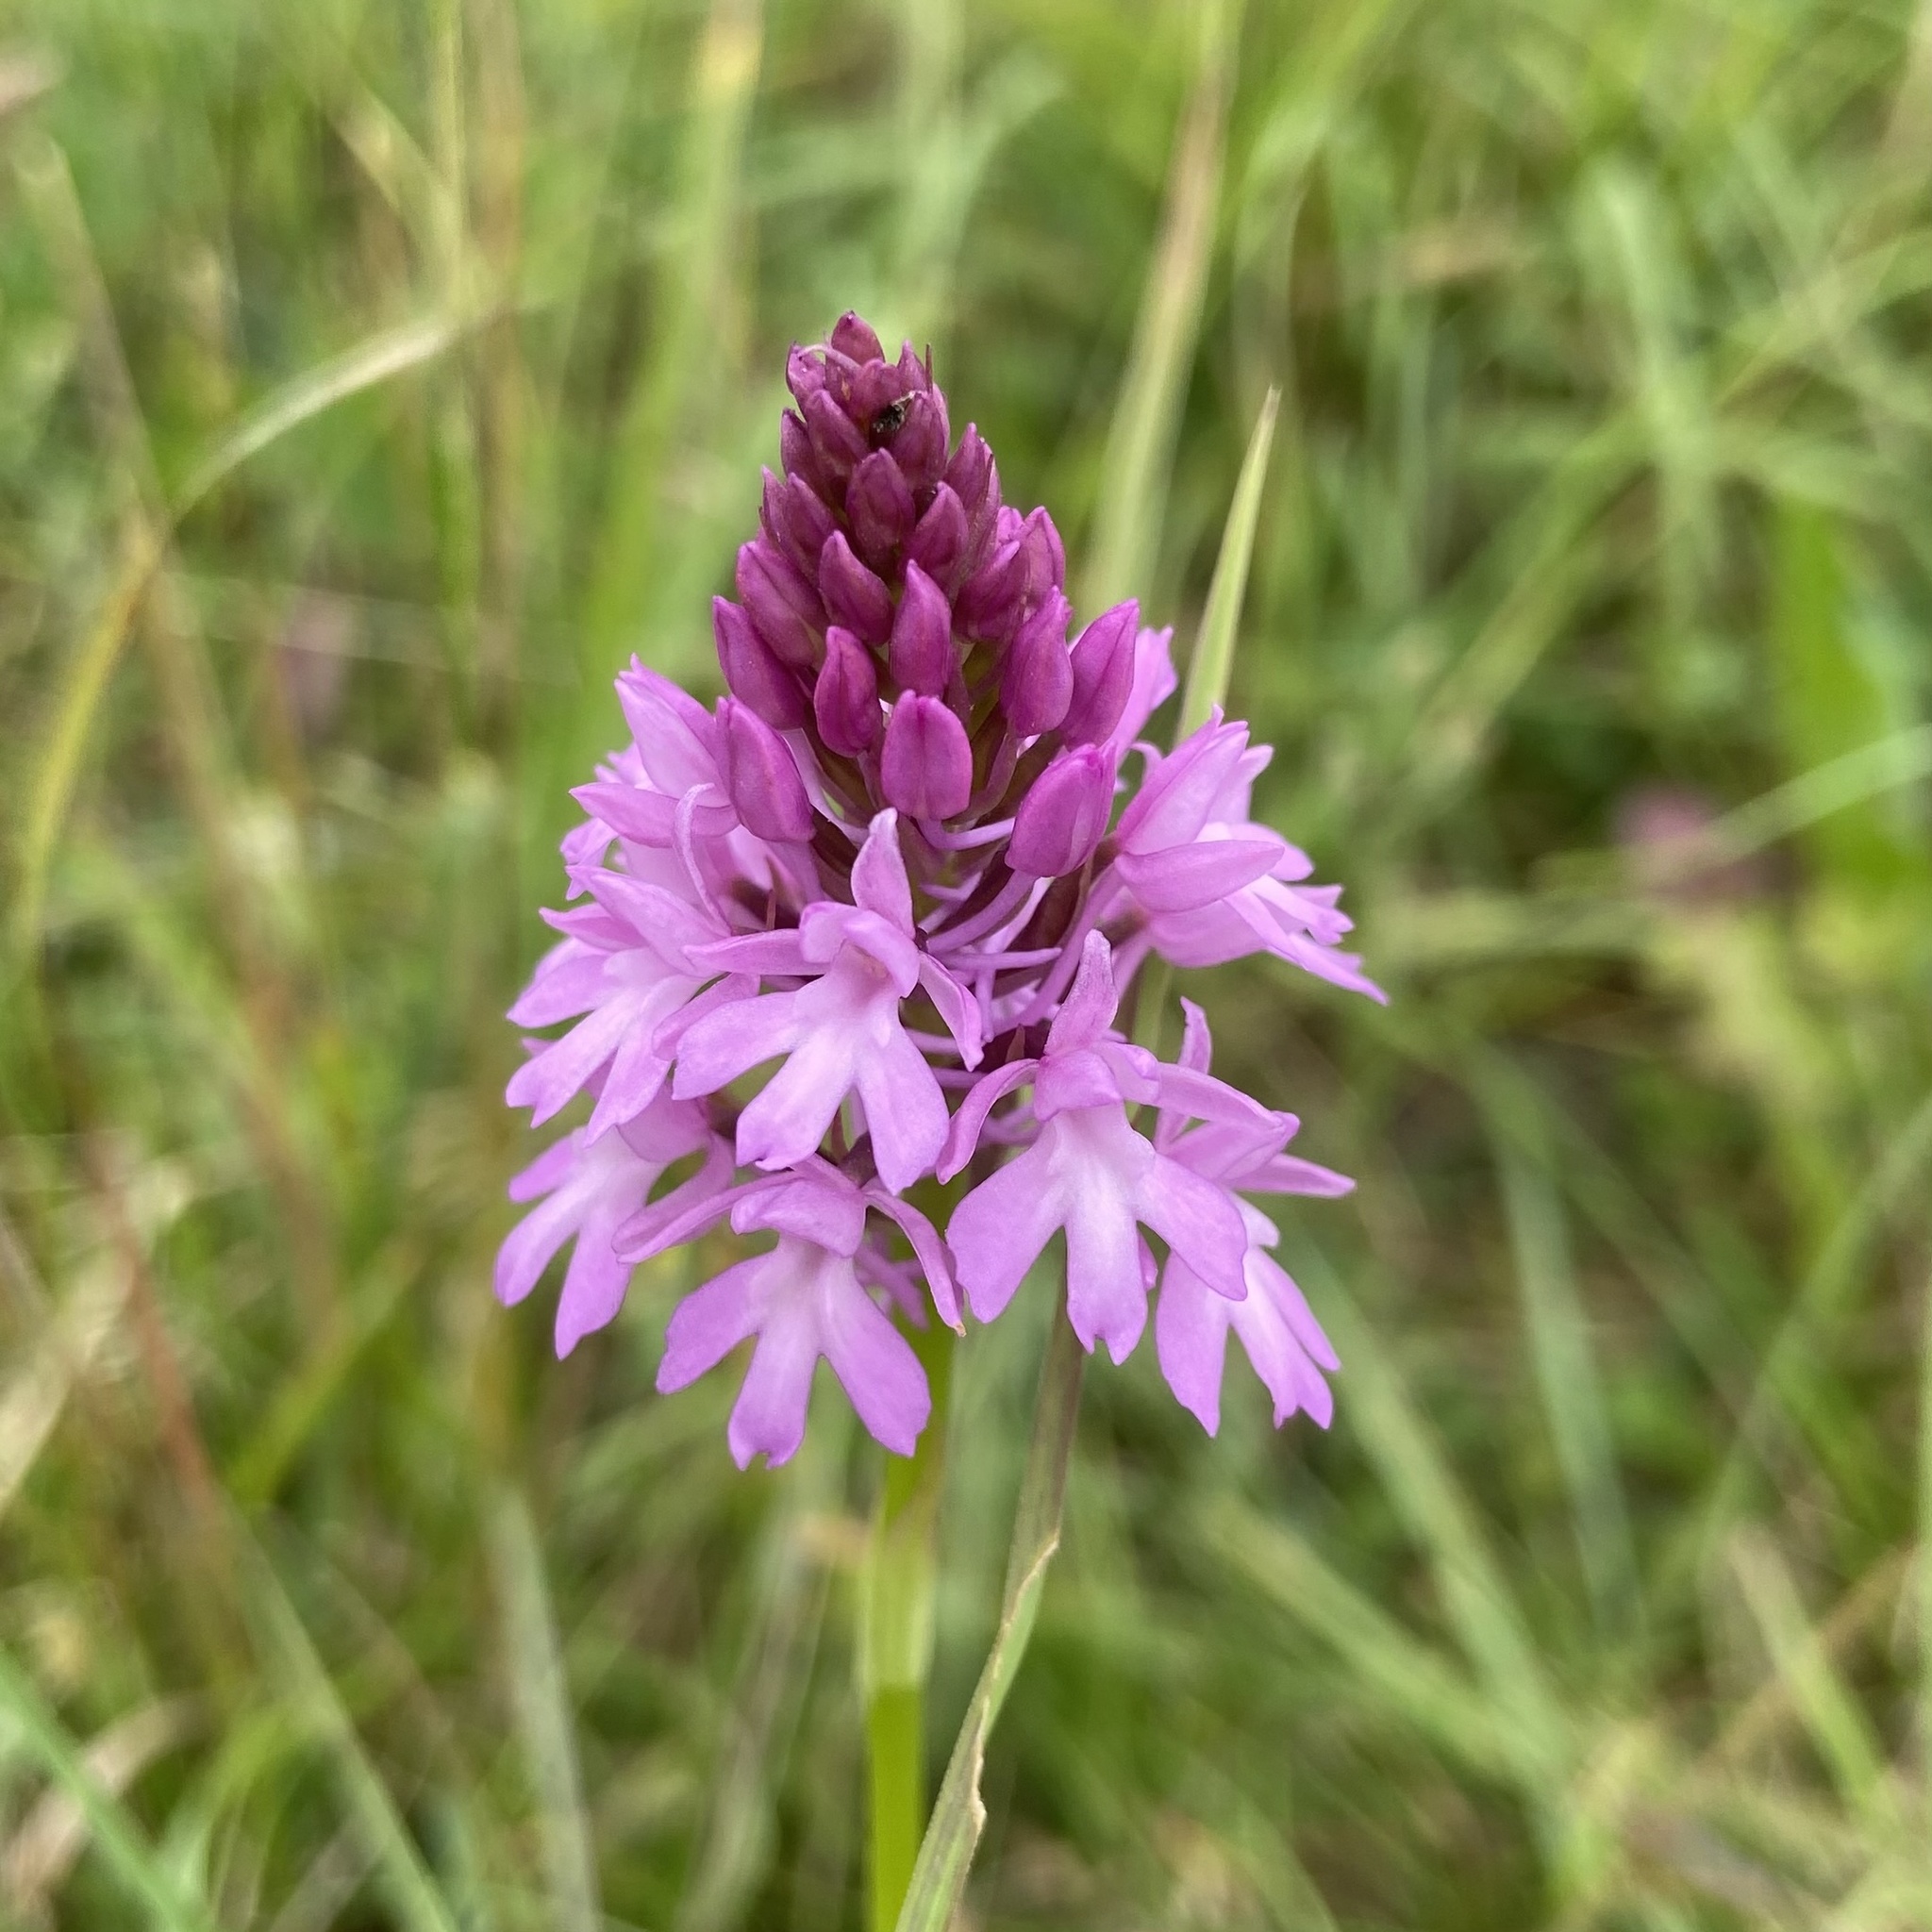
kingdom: Plantae
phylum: Tracheophyta
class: Liliopsida
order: Asparagales
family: Orchidaceae
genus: Anacamptis
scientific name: Anacamptis pyramidalis
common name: Pyramidal orchid
